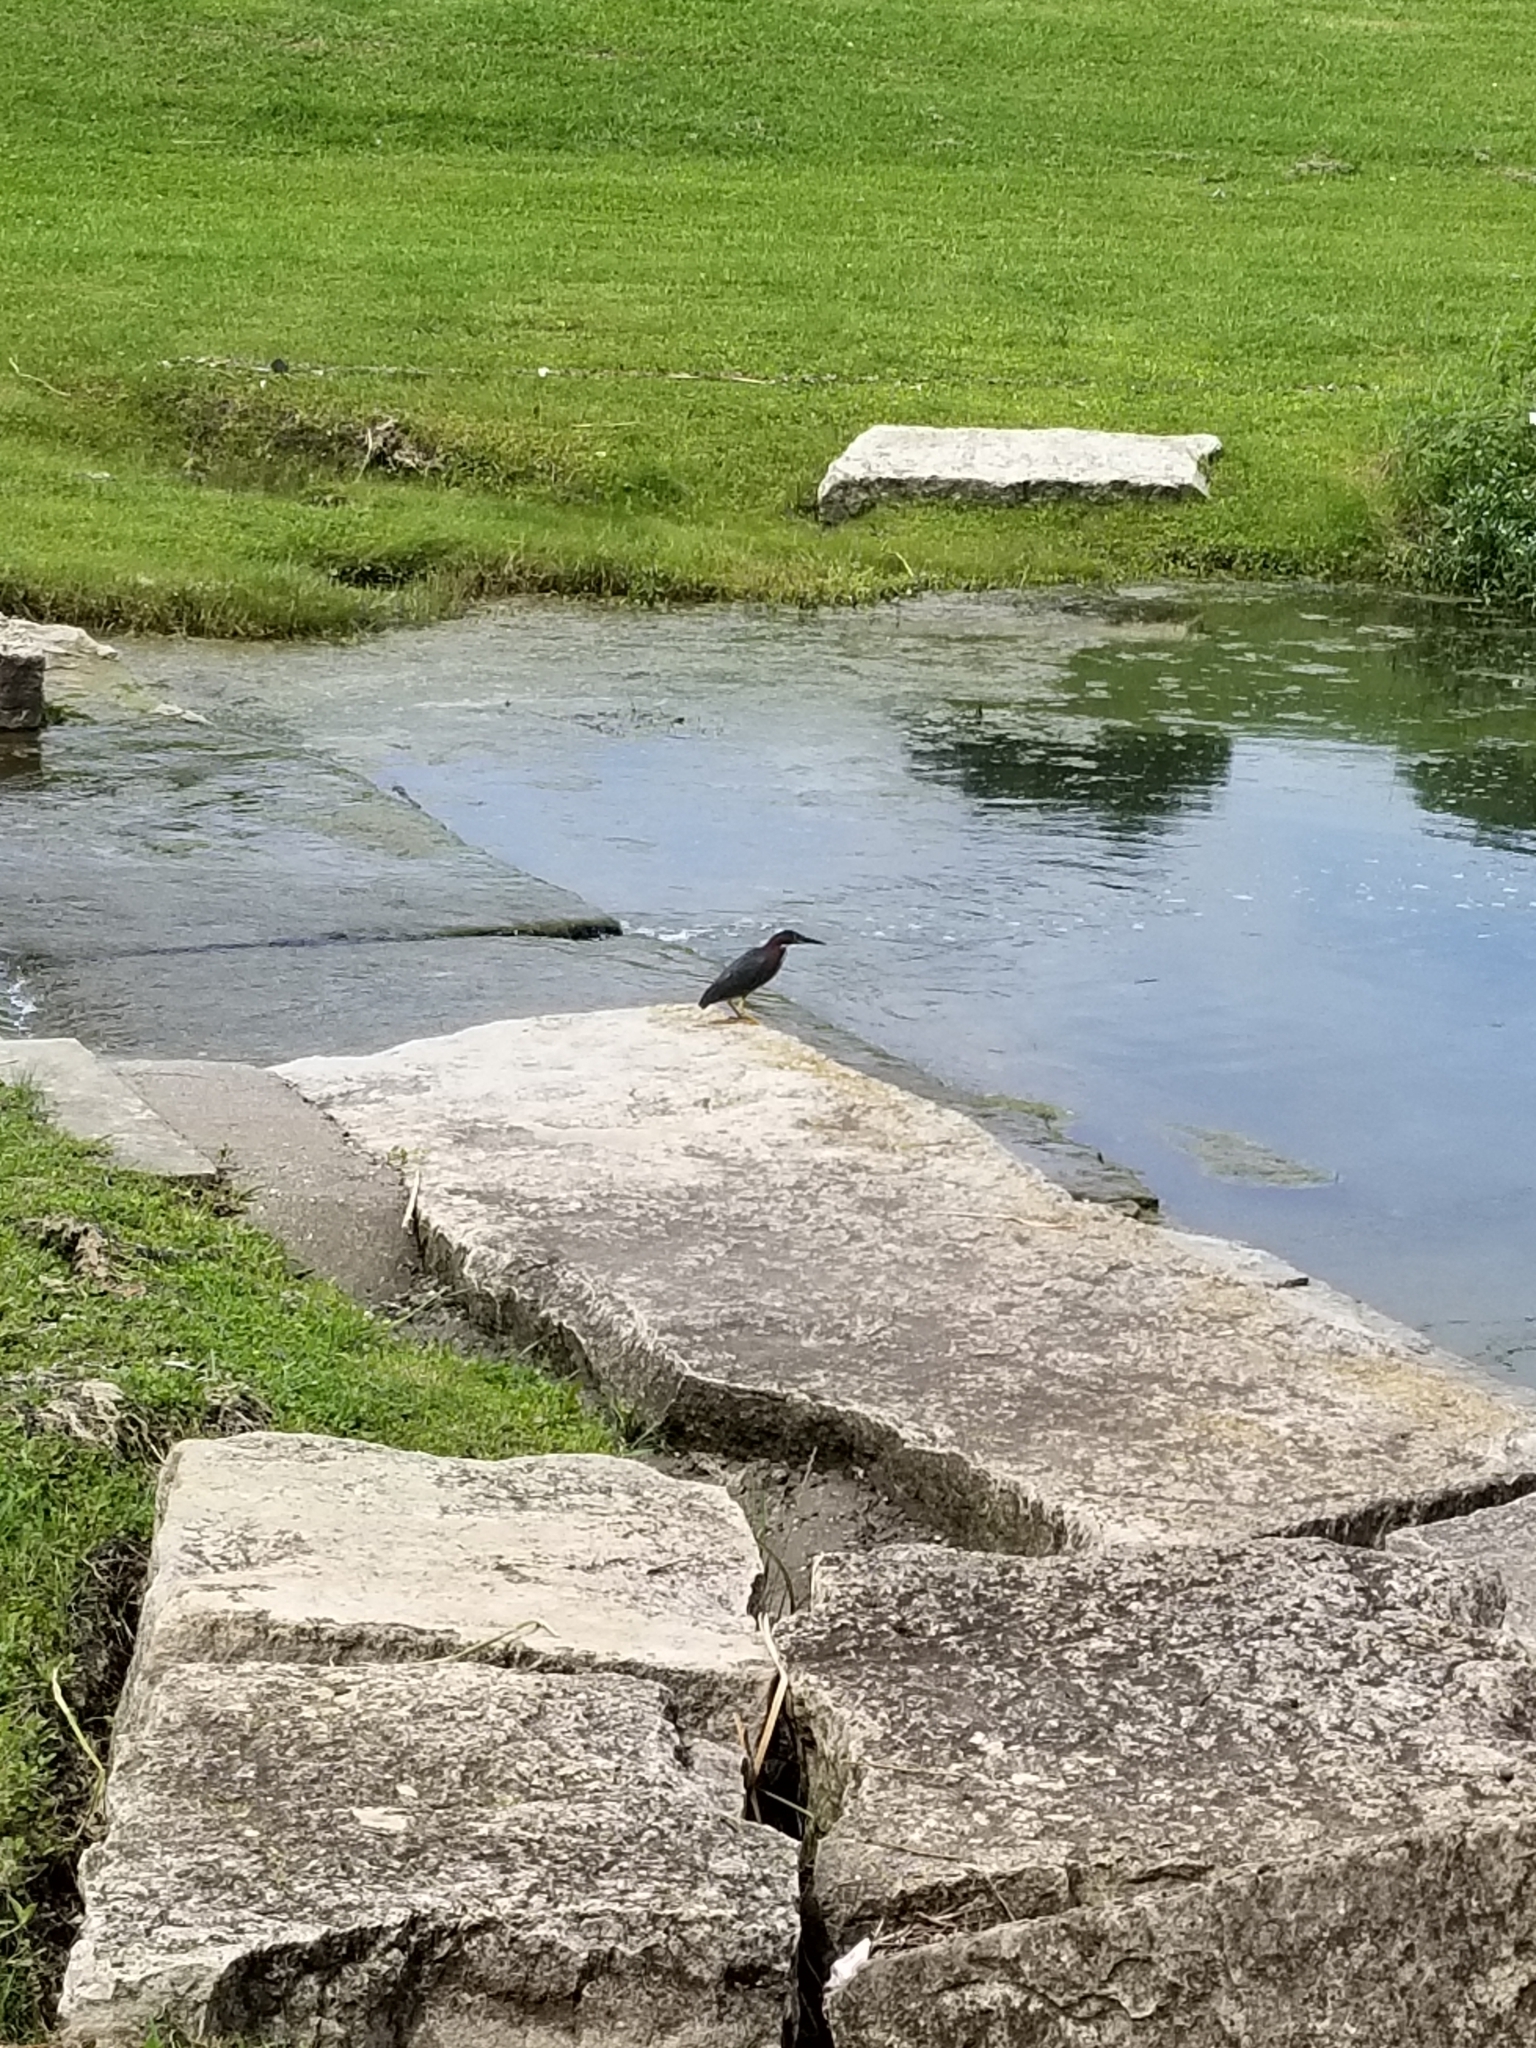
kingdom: Animalia
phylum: Chordata
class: Aves
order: Pelecaniformes
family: Ardeidae
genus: Butorides
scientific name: Butorides virescens
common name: Green heron
